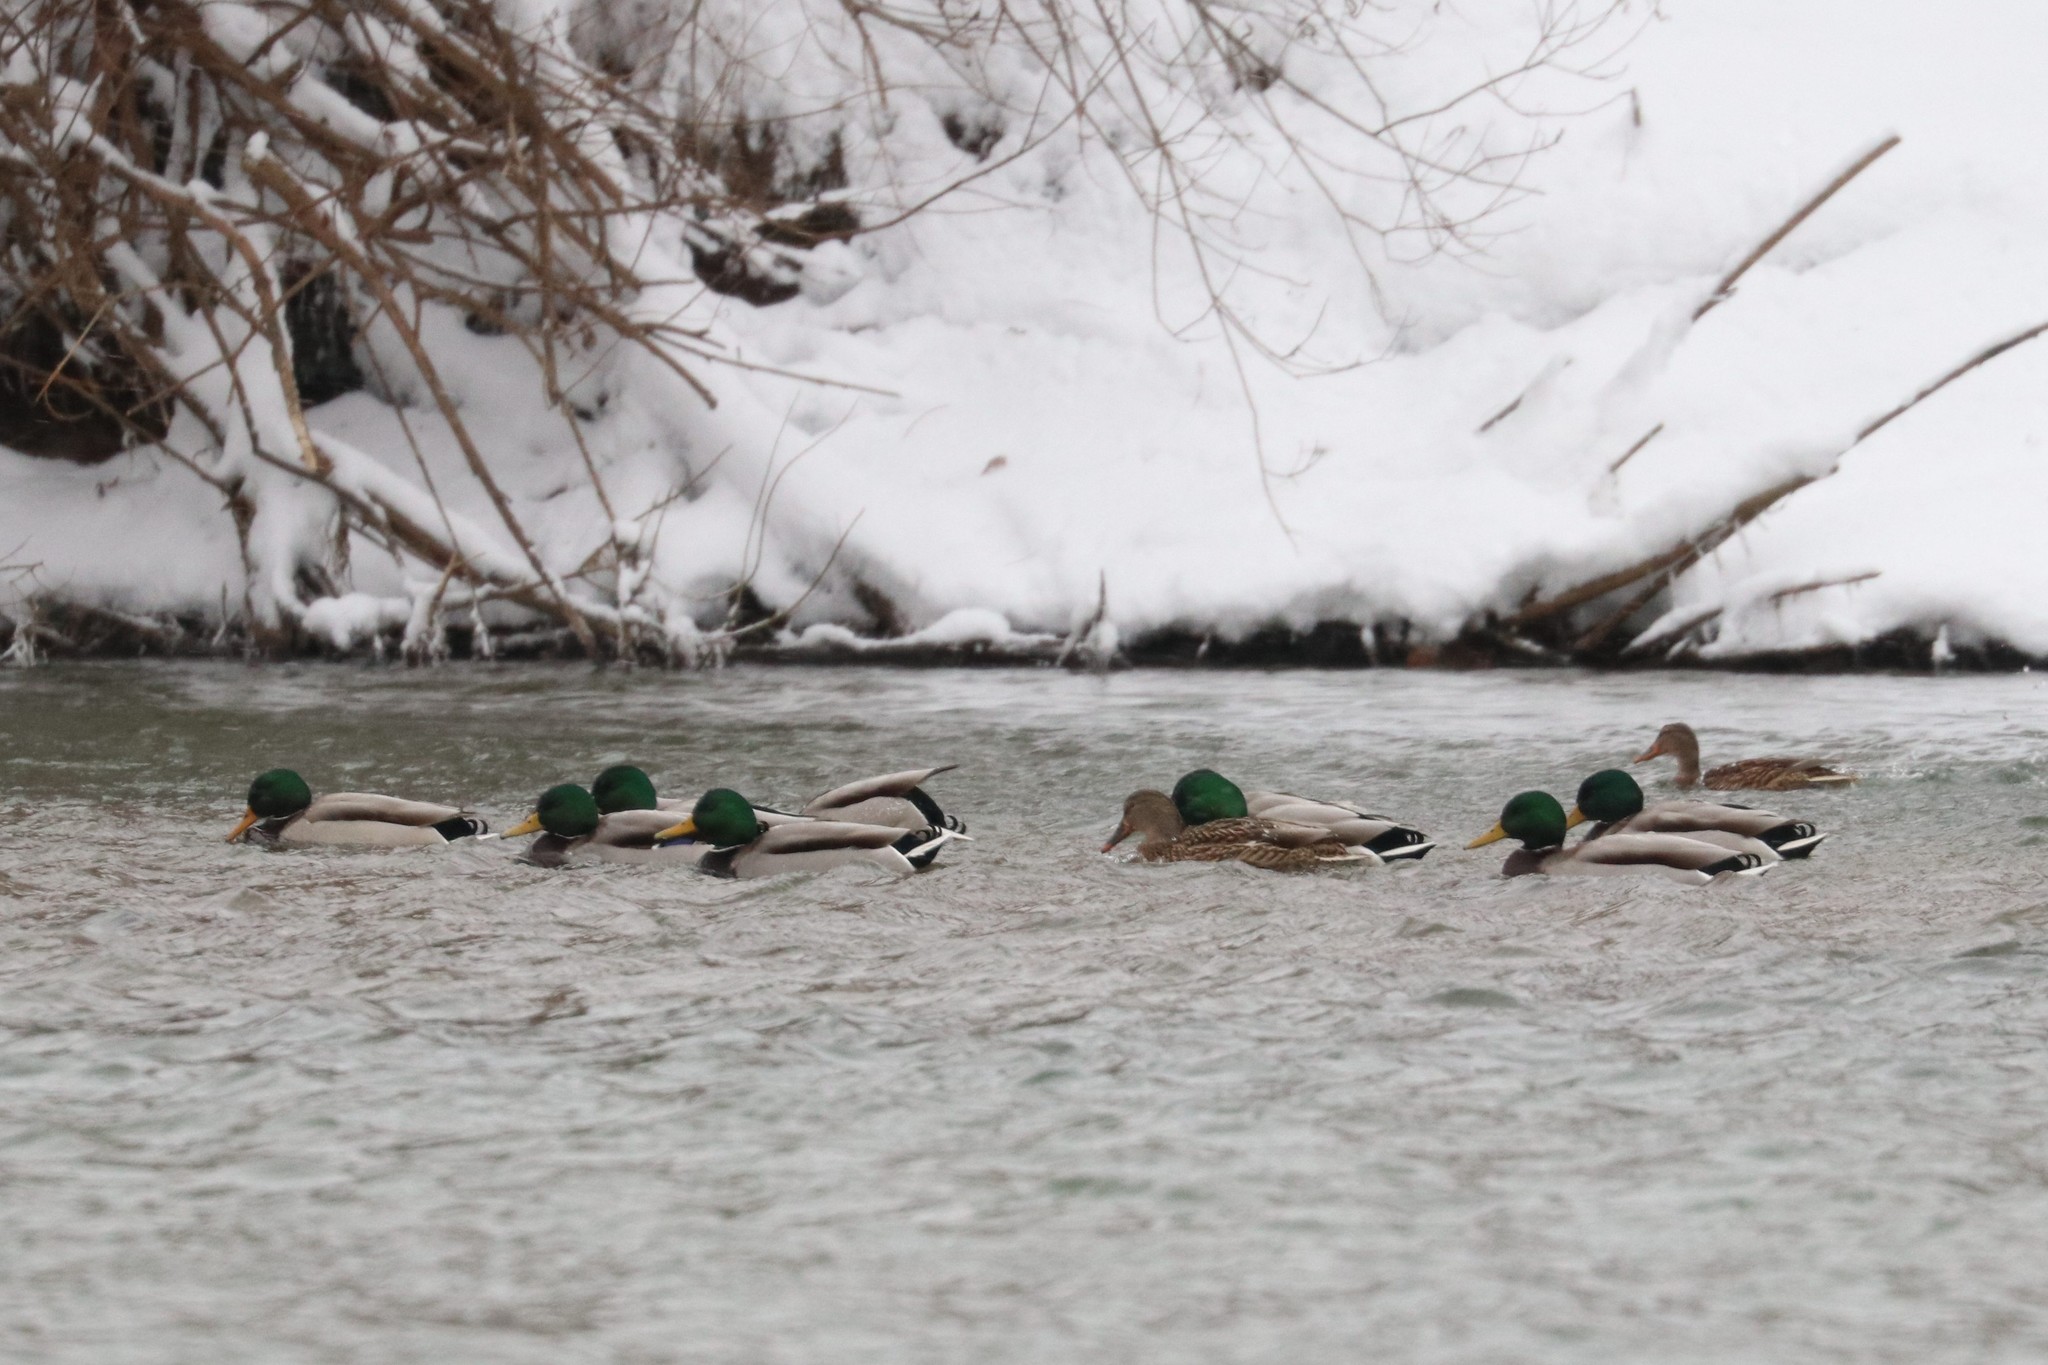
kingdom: Animalia
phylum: Chordata
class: Aves
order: Anseriformes
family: Anatidae
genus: Anas
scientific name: Anas platyrhynchos
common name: Mallard
